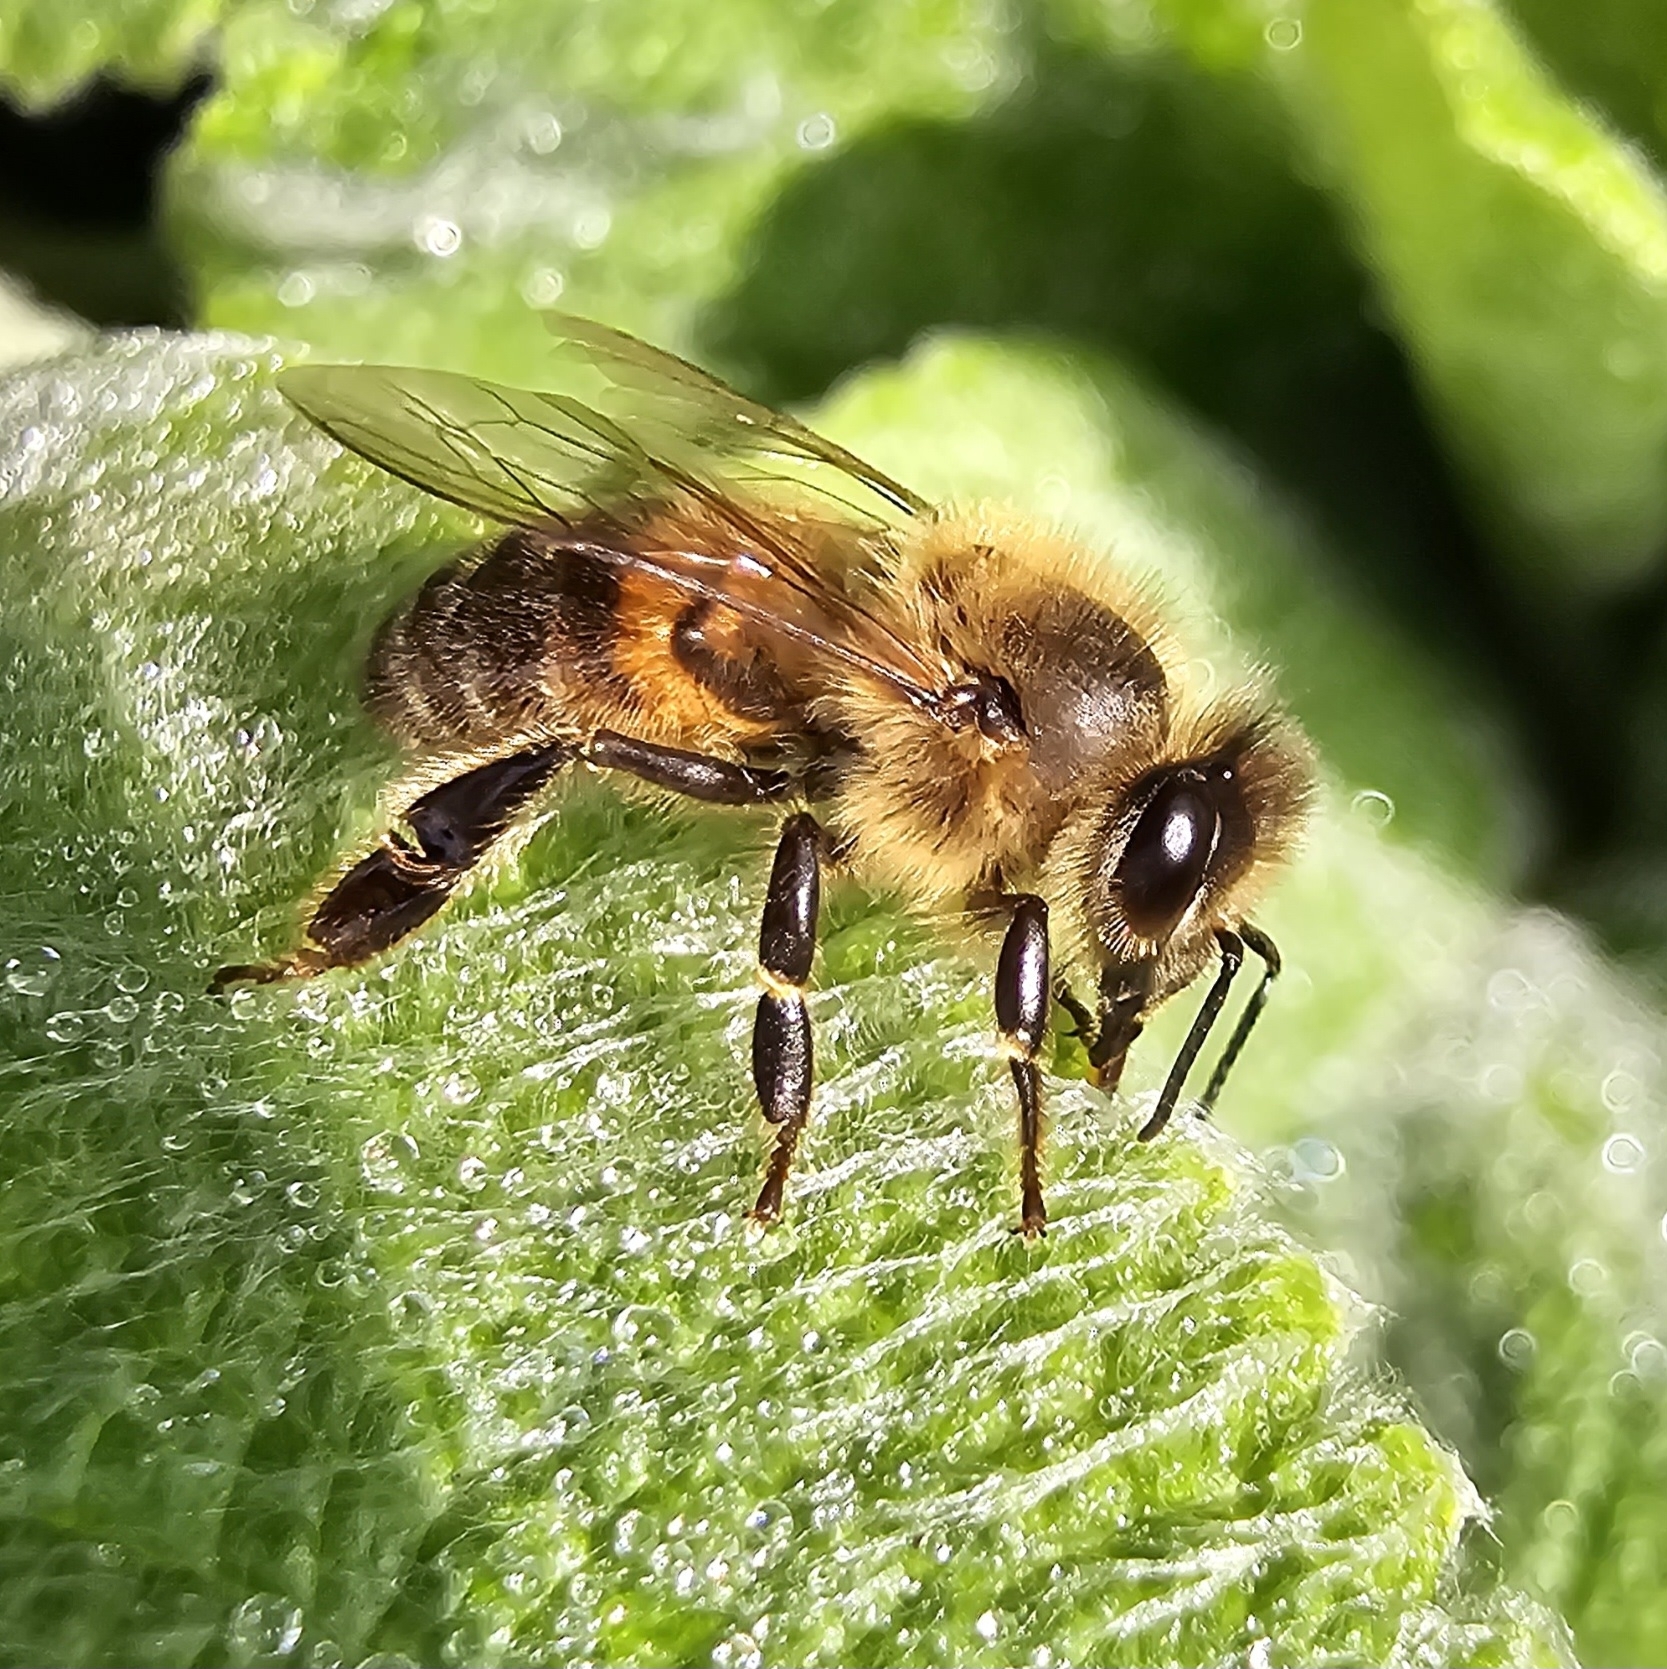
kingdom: Animalia
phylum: Arthropoda
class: Insecta
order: Hymenoptera
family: Apidae
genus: Apis
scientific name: Apis mellifera
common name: Honey bee
